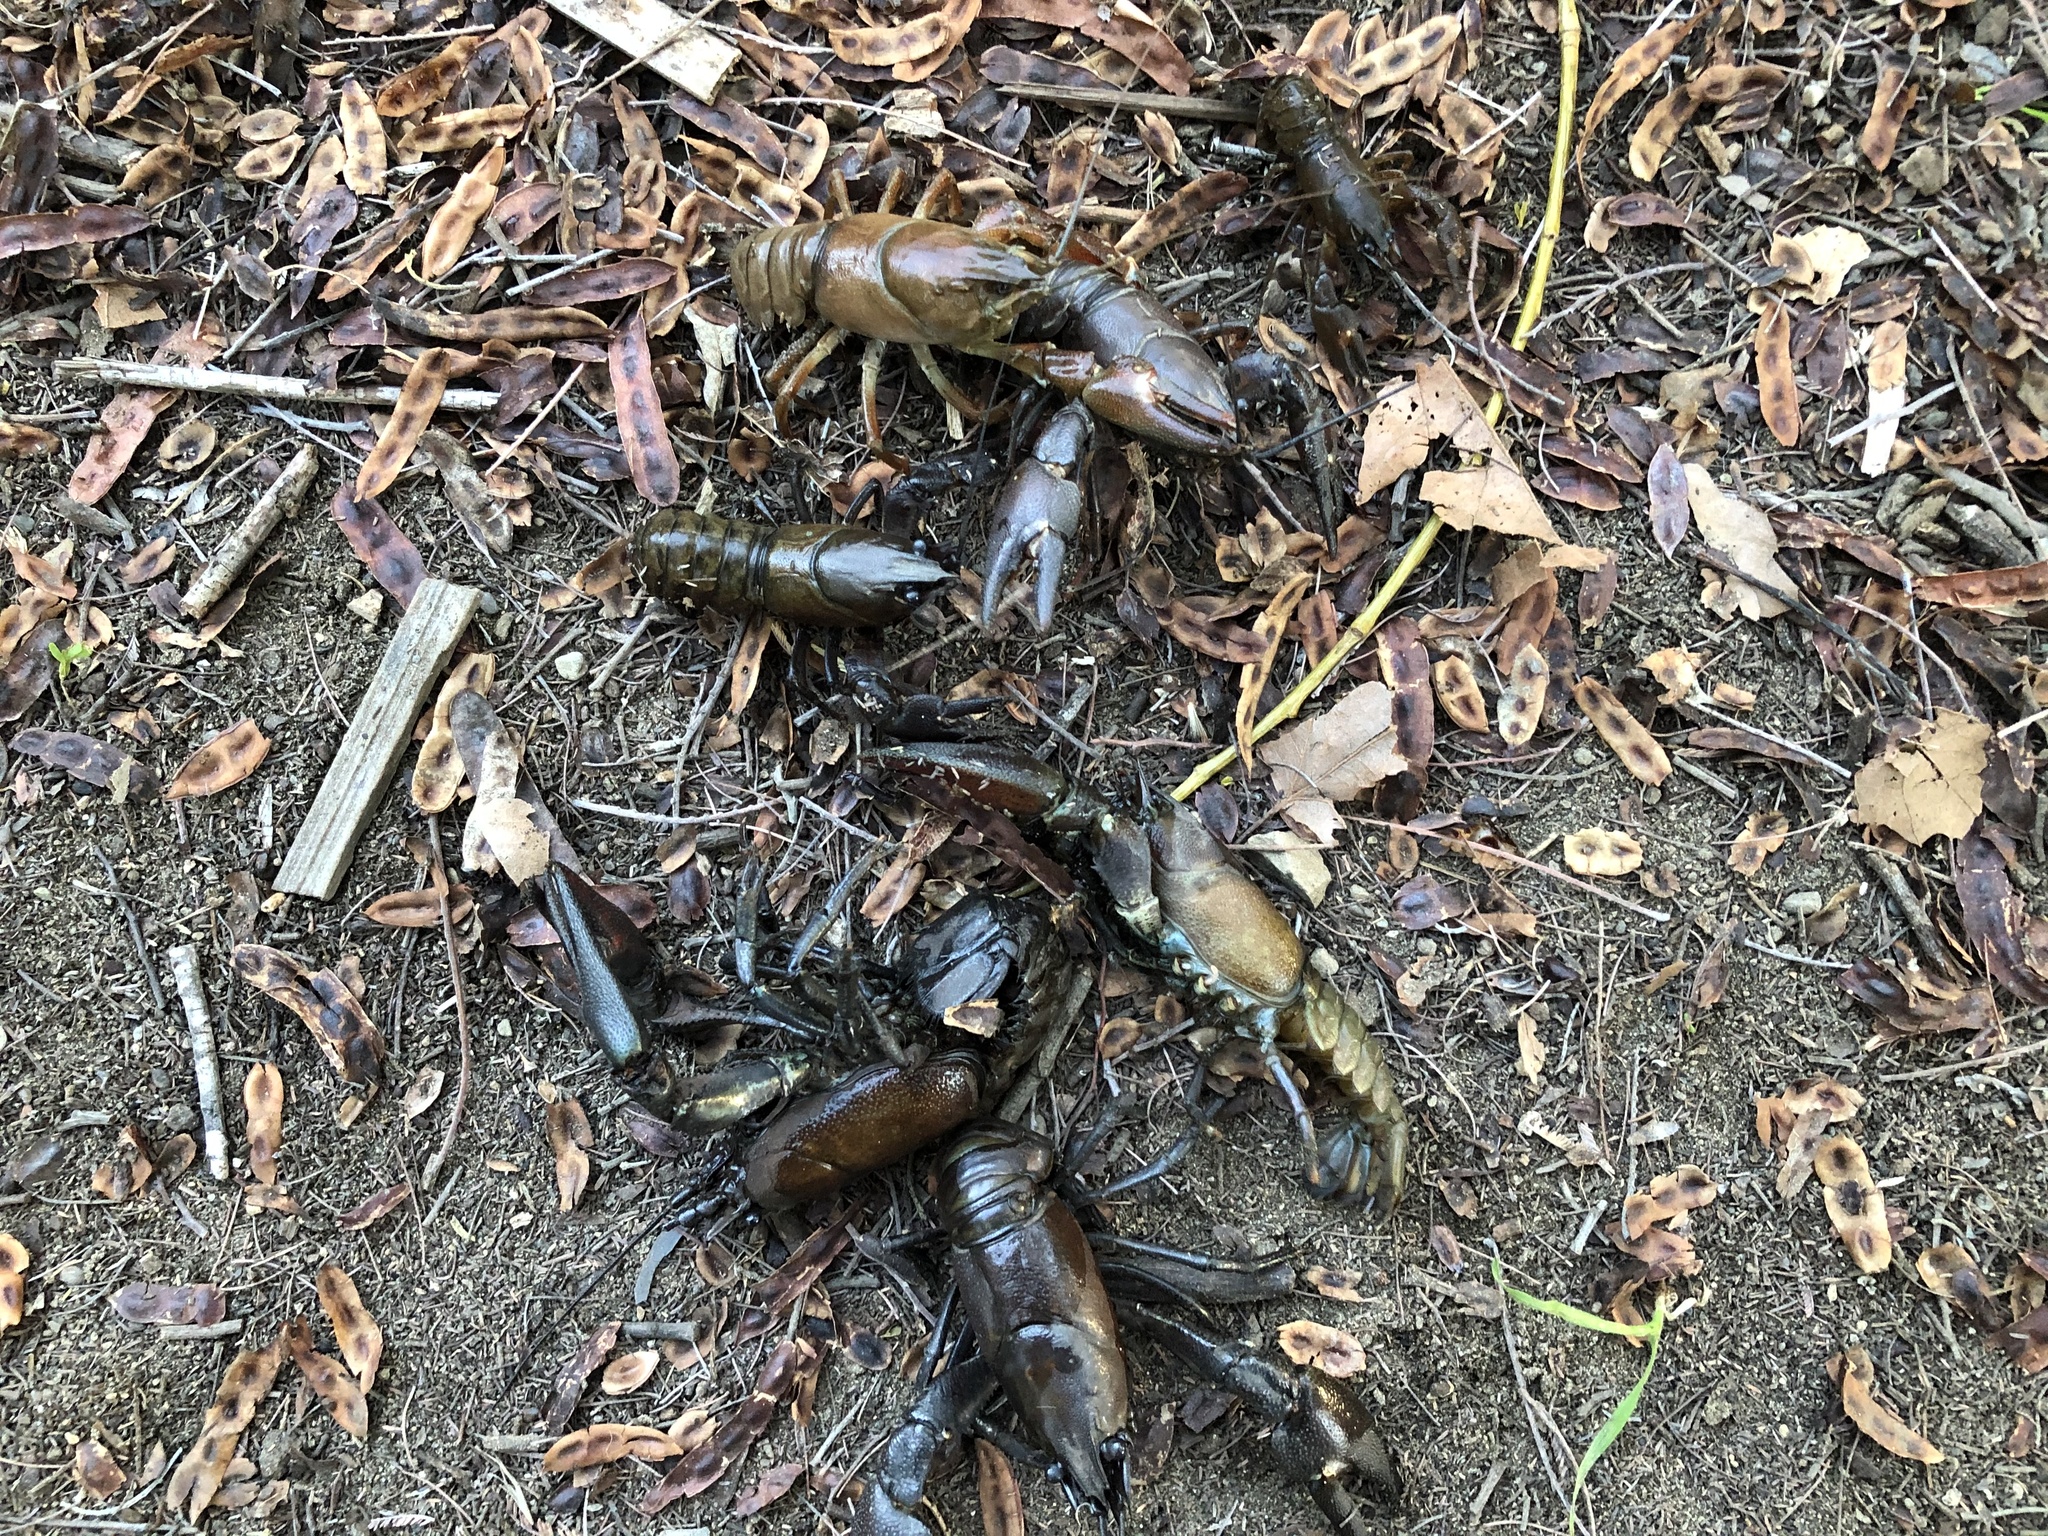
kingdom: Animalia
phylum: Arthropoda
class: Malacostraca
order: Decapoda
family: Astacidae
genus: Pacifastacus
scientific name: Pacifastacus leniusculus
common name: Signal crayfish
